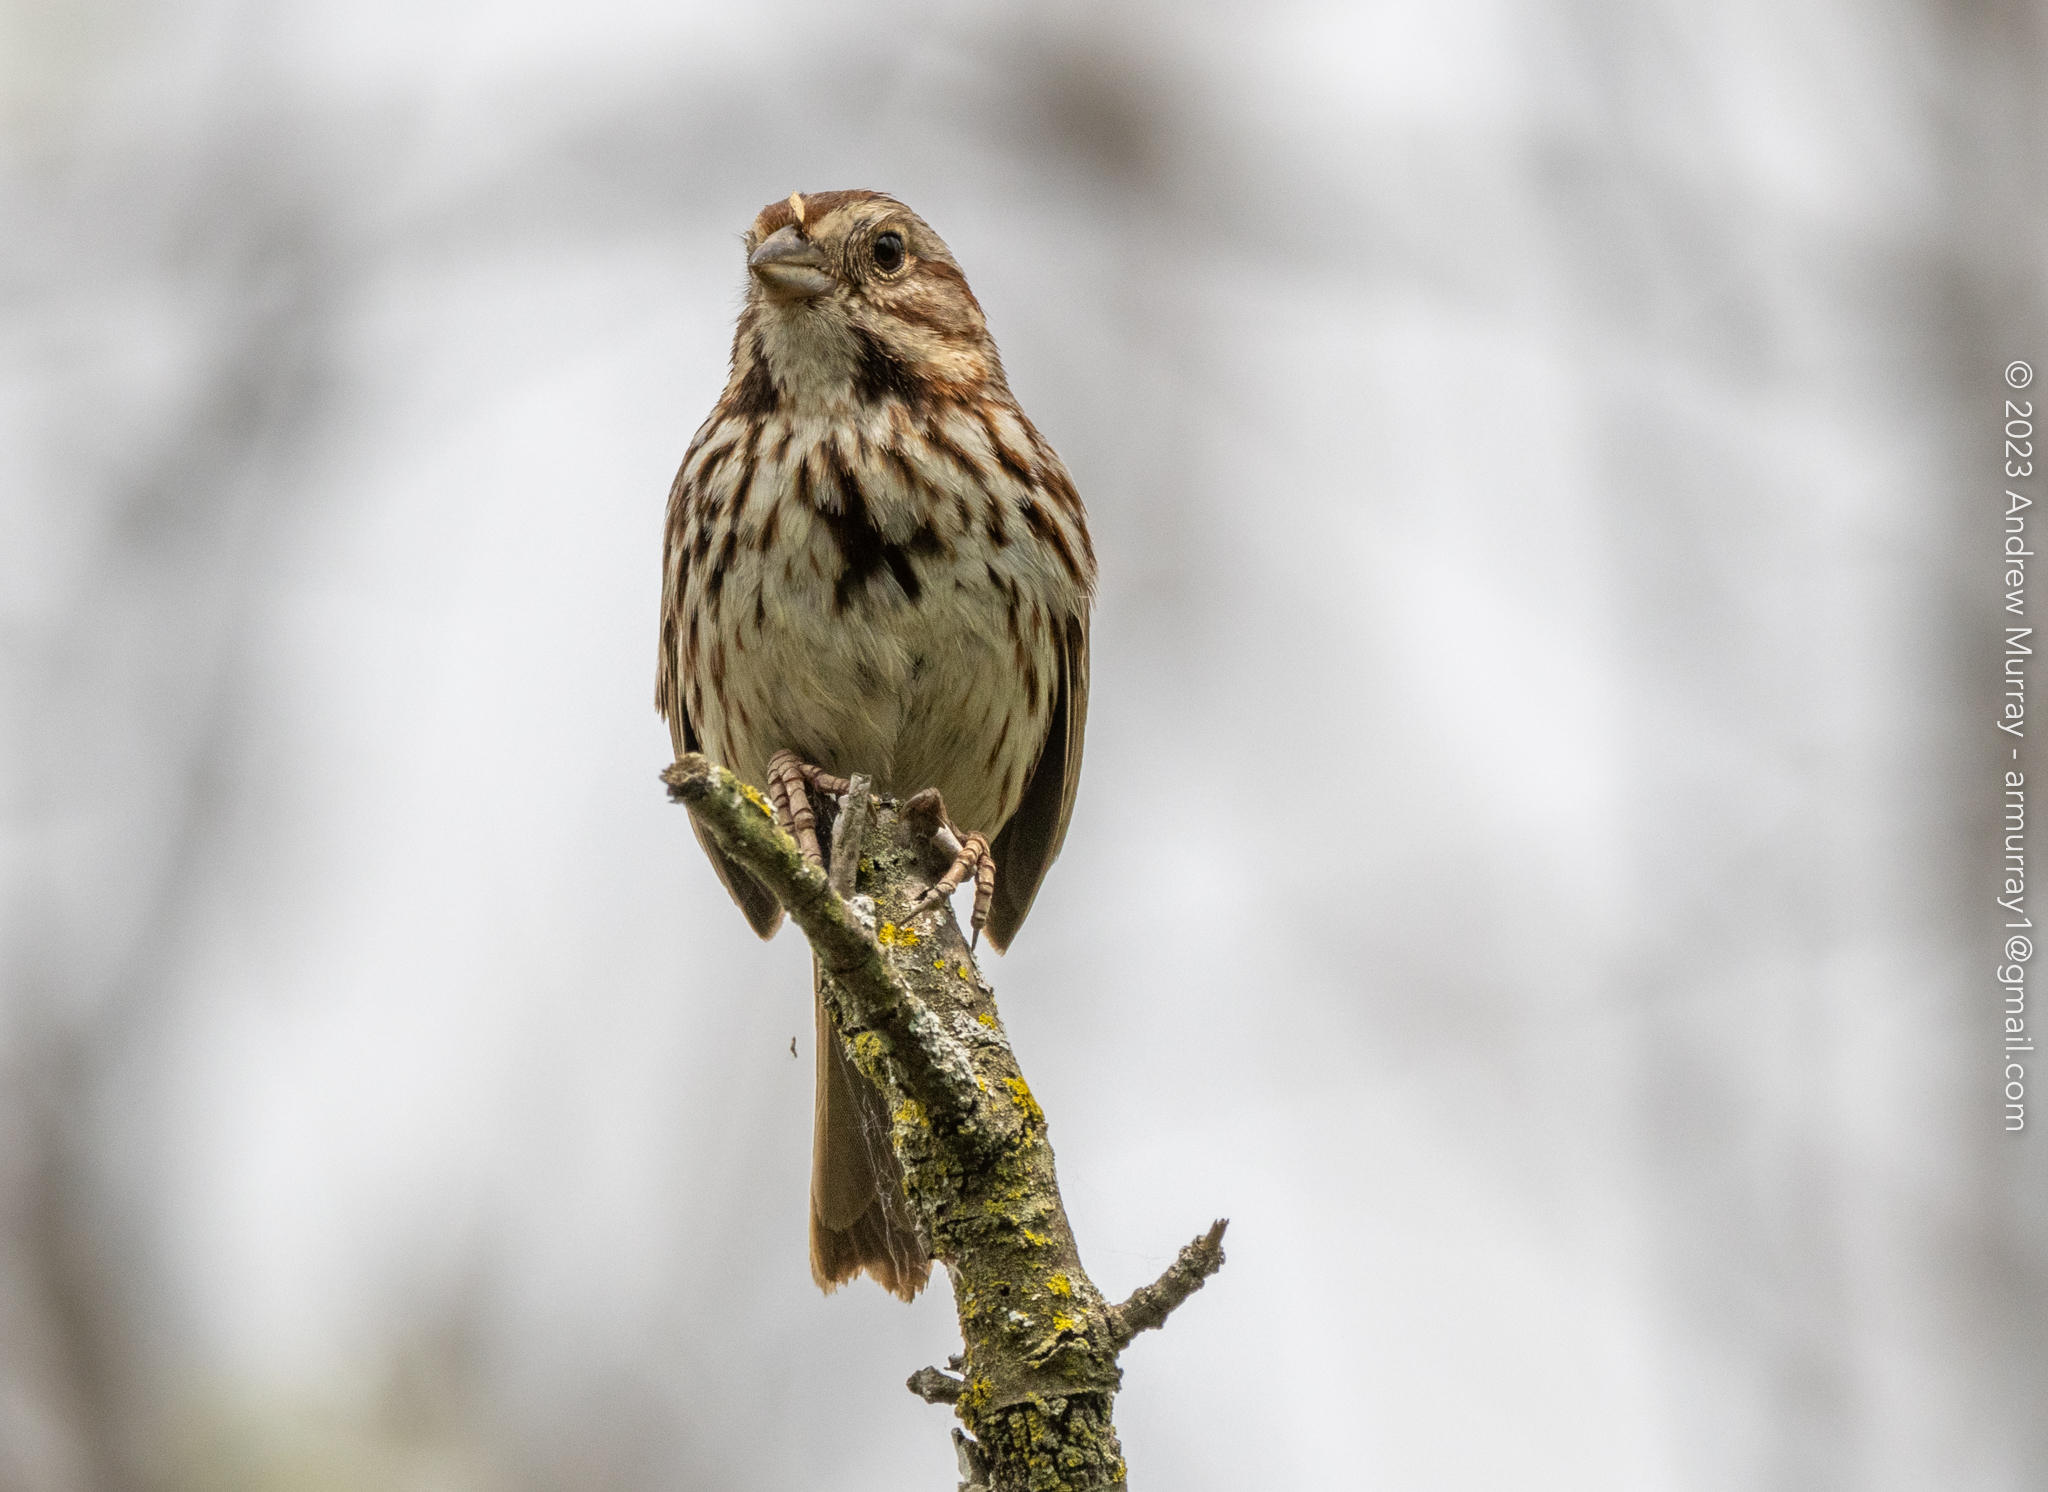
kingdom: Animalia
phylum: Chordata
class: Aves
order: Passeriformes
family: Passerellidae
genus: Melospiza
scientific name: Melospiza melodia
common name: Song sparrow
